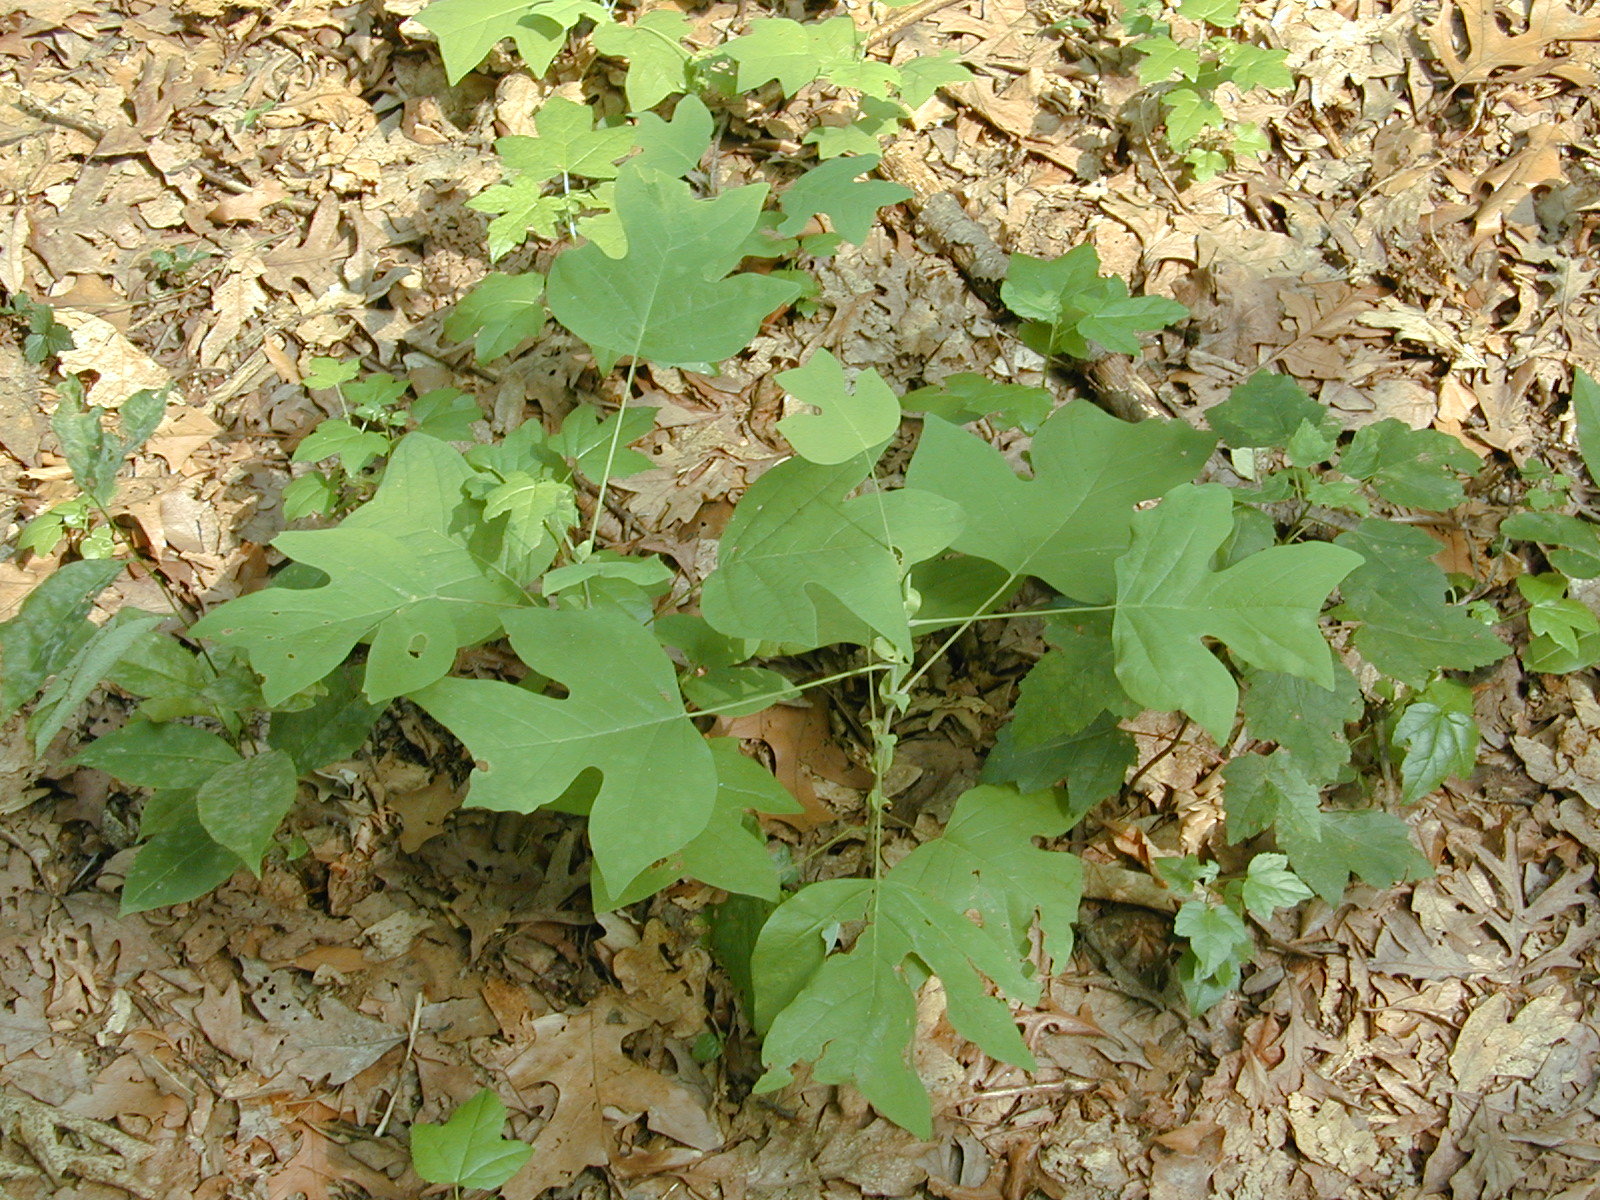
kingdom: Plantae
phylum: Tracheophyta
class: Magnoliopsida
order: Magnoliales
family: Magnoliaceae
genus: Liriodendron
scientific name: Liriodendron tulipifera
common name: Tulip tree
